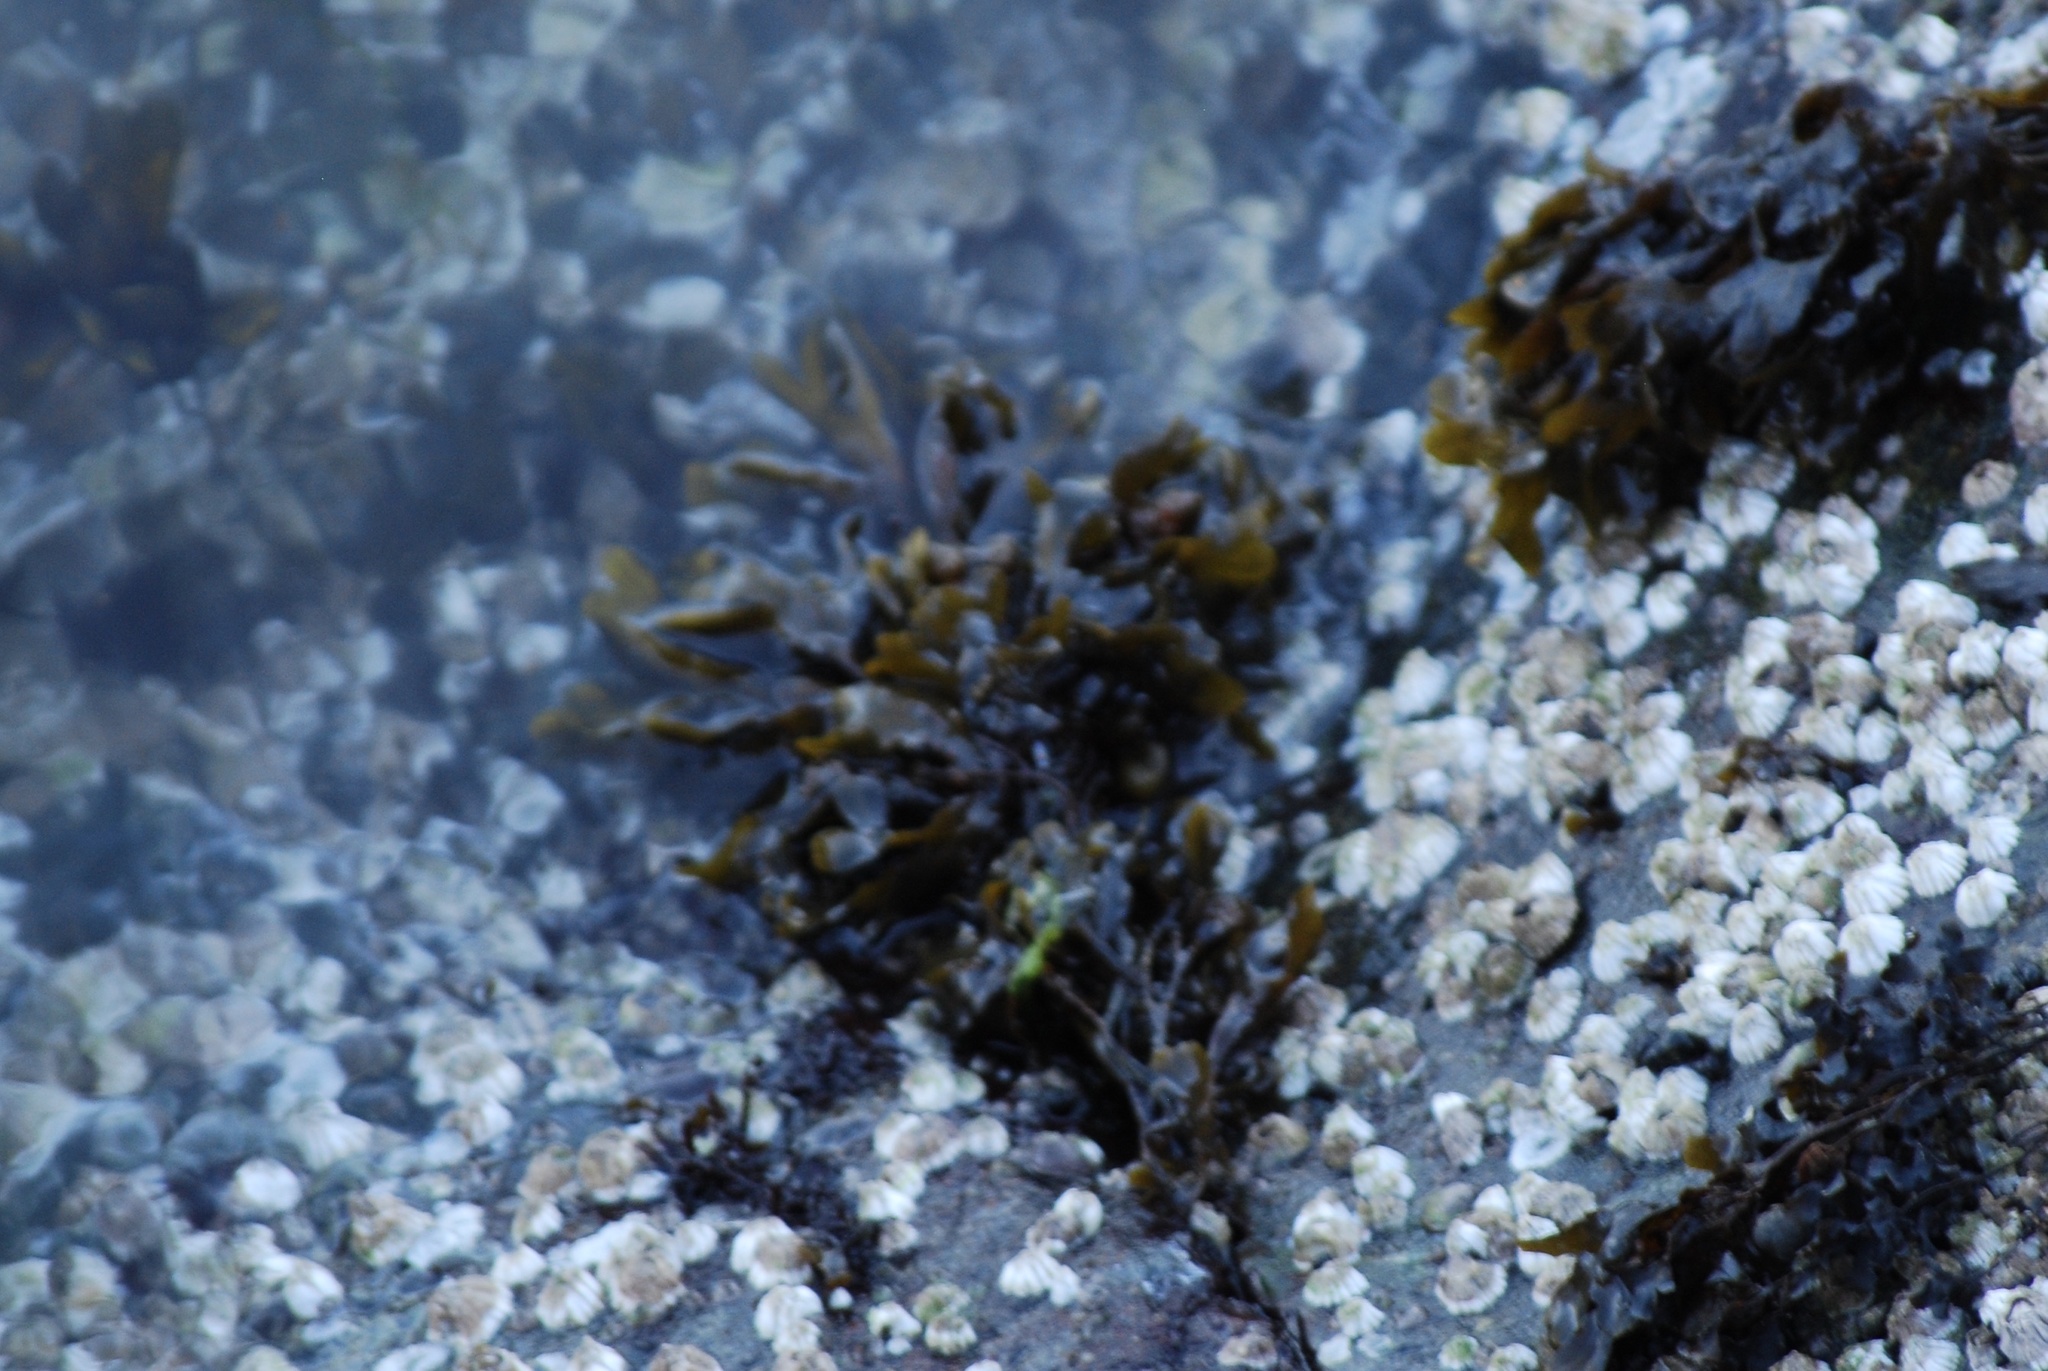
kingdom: Chromista
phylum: Ochrophyta
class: Phaeophyceae
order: Fucales
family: Fucaceae
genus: Fucus
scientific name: Fucus distichus
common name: Rockweed
